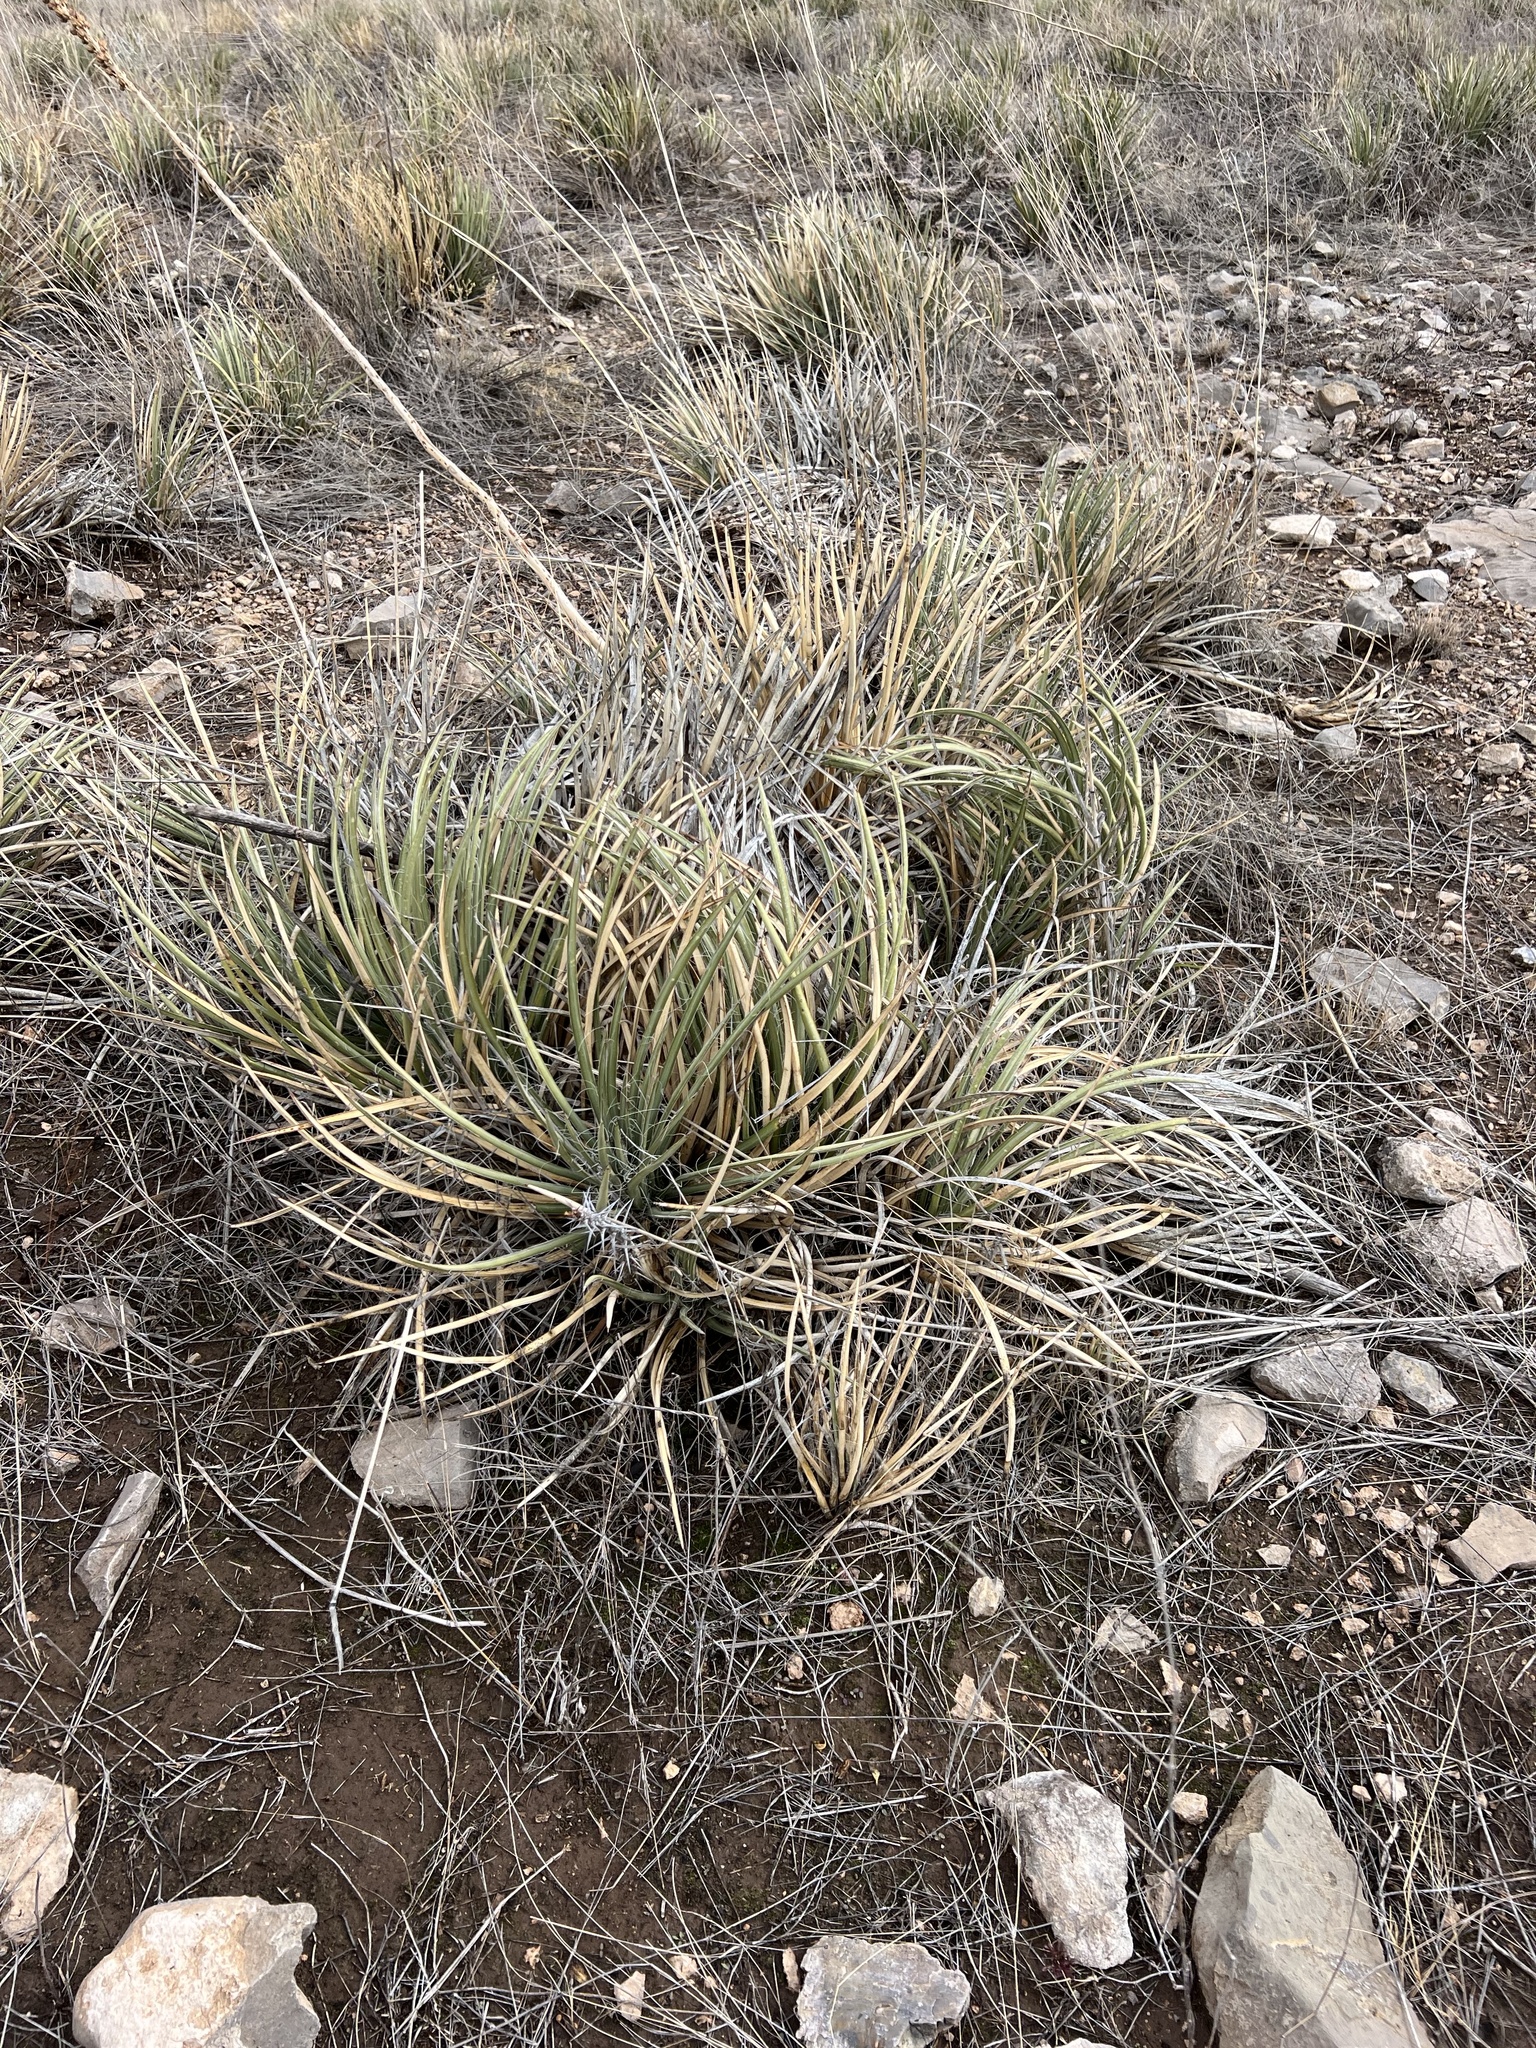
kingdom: Plantae
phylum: Tracheophyta
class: Liliopsida
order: Asparagales
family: Asparagaceae
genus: Agave
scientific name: Agave schottii
